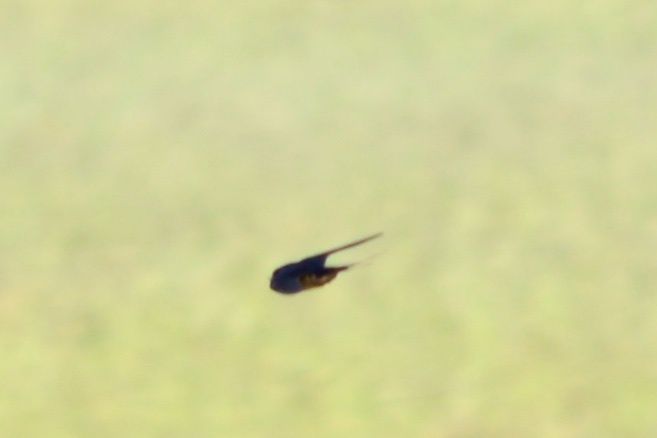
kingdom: Animalia
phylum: Chordata
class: Aves
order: Passeriformes
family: Hirundinidae
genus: Hirundo
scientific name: Hirundo rustica
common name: Barn swallow
